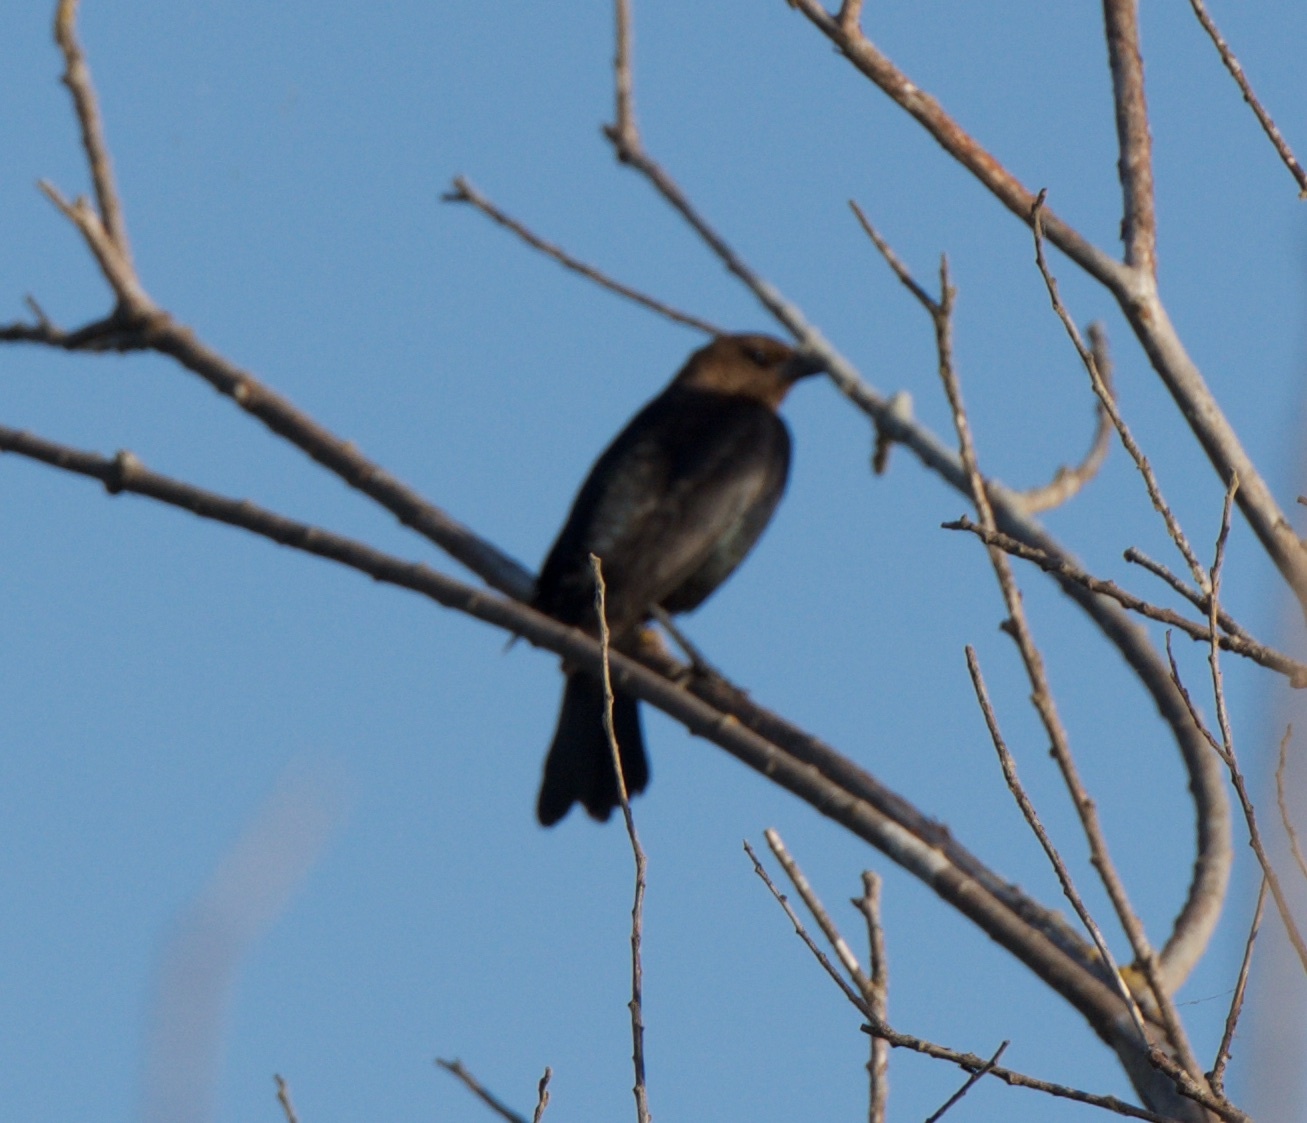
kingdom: Animalia
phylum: Chordata
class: Aves
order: Passeriformes
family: Icteridae
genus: Molothrus
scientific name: Molothrus ater
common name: Brown-headed cowbird
